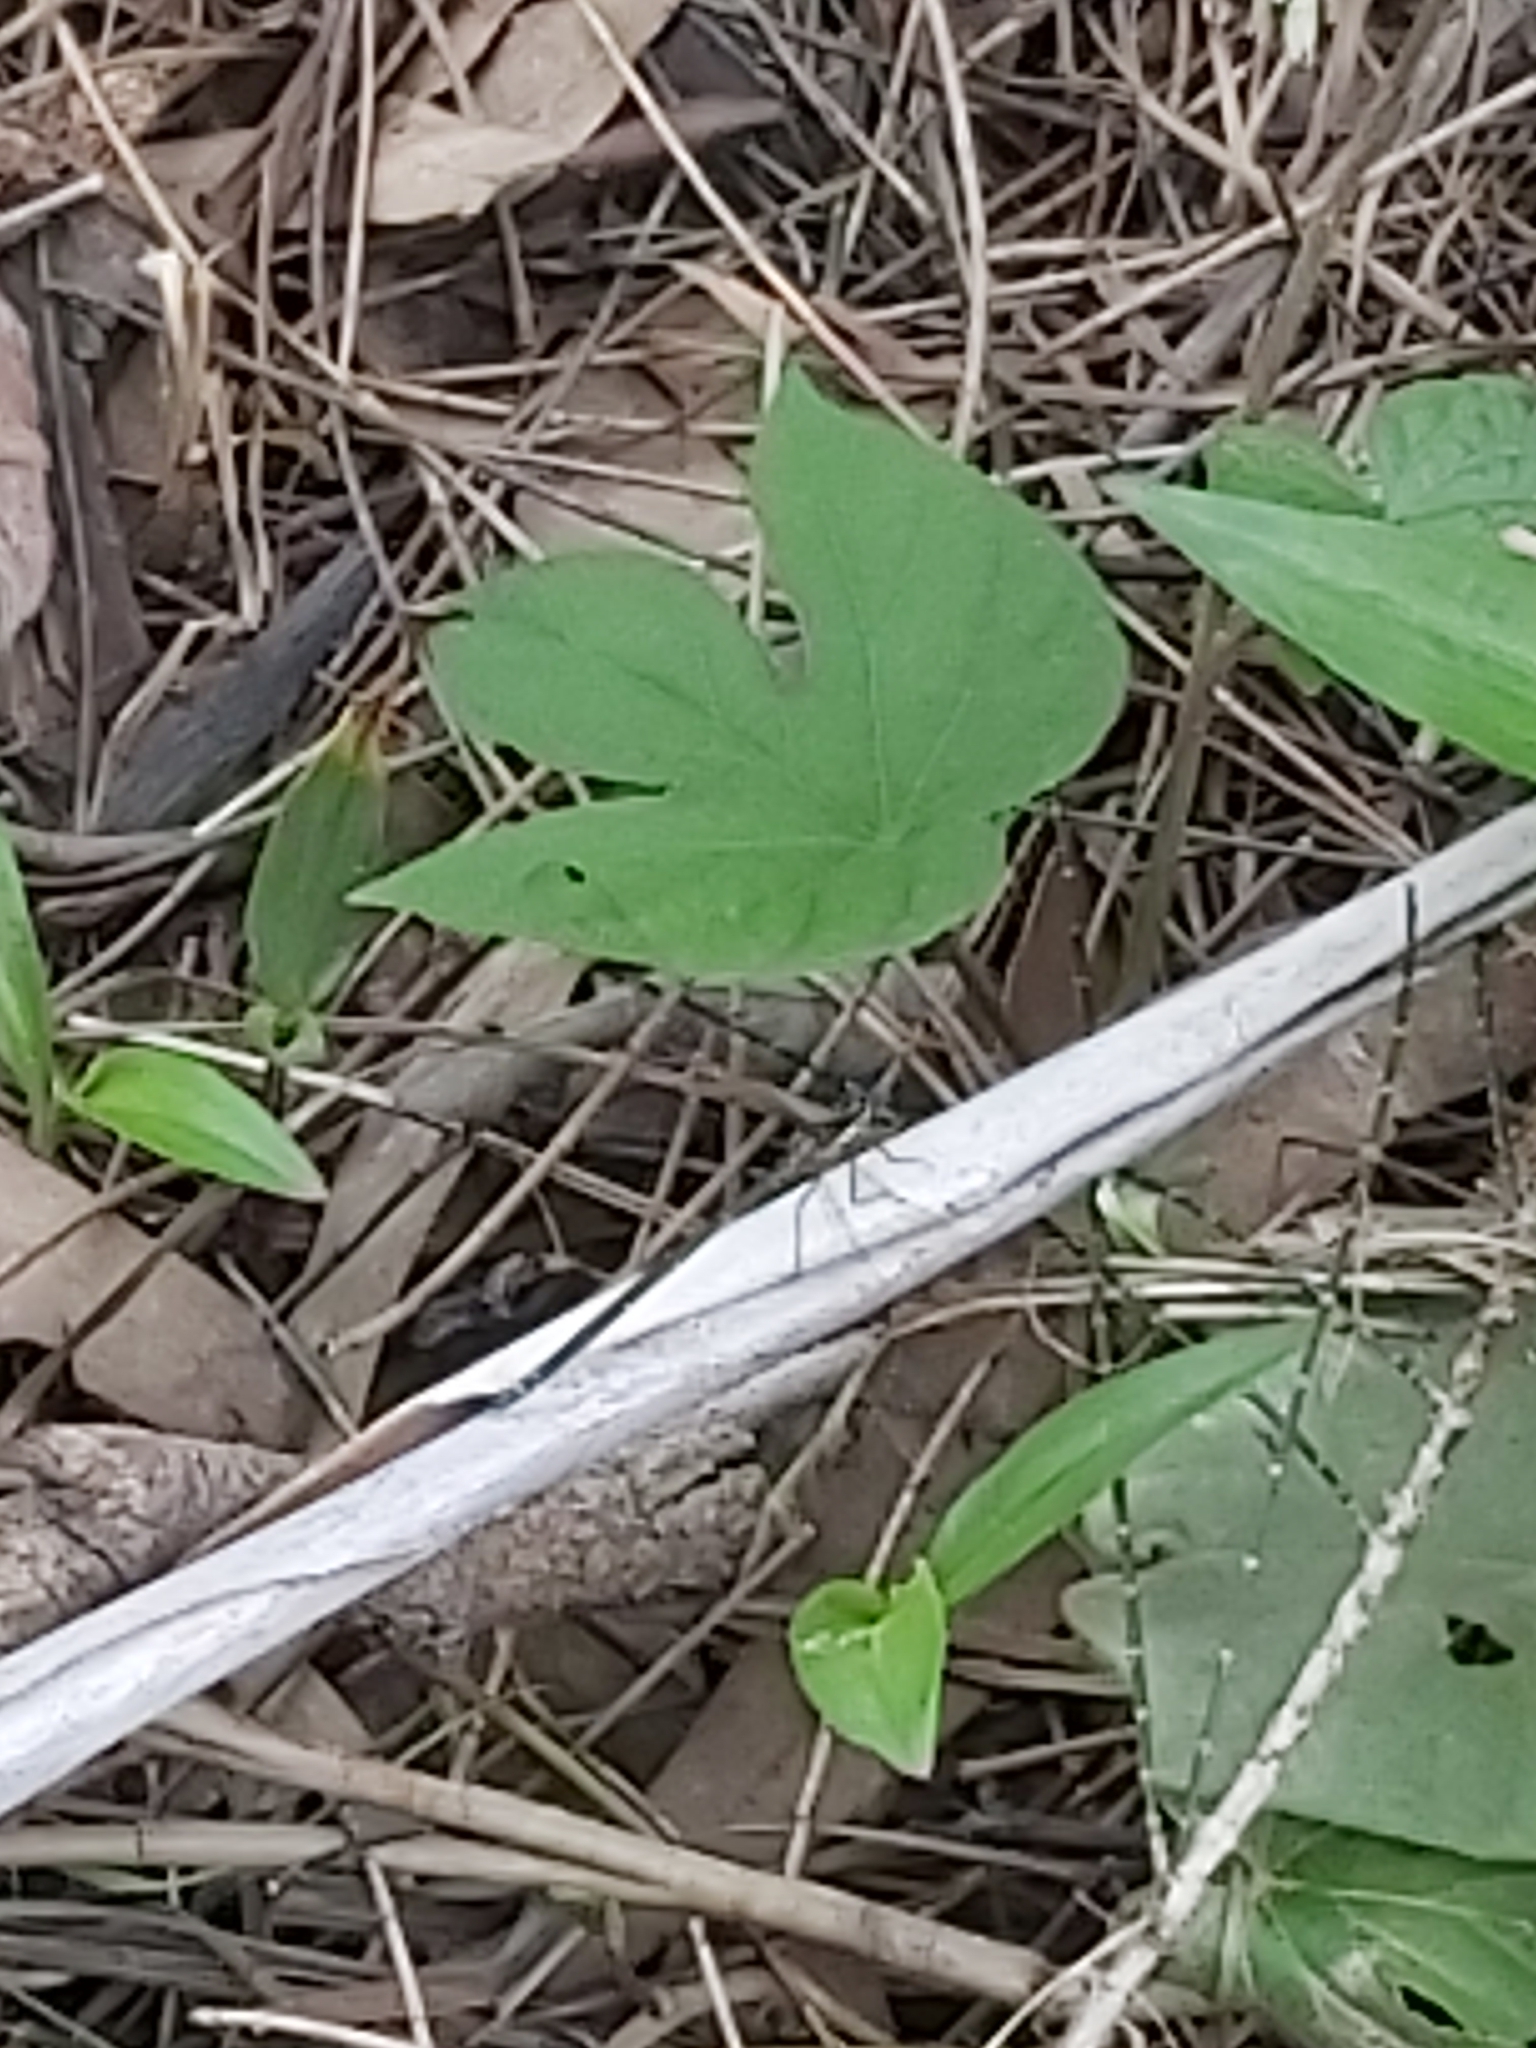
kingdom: Animalia
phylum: Arthropoda
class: Insecta
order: Odonata
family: Argiolestidae
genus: Austroargiolestes
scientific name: Austroargiolestes
